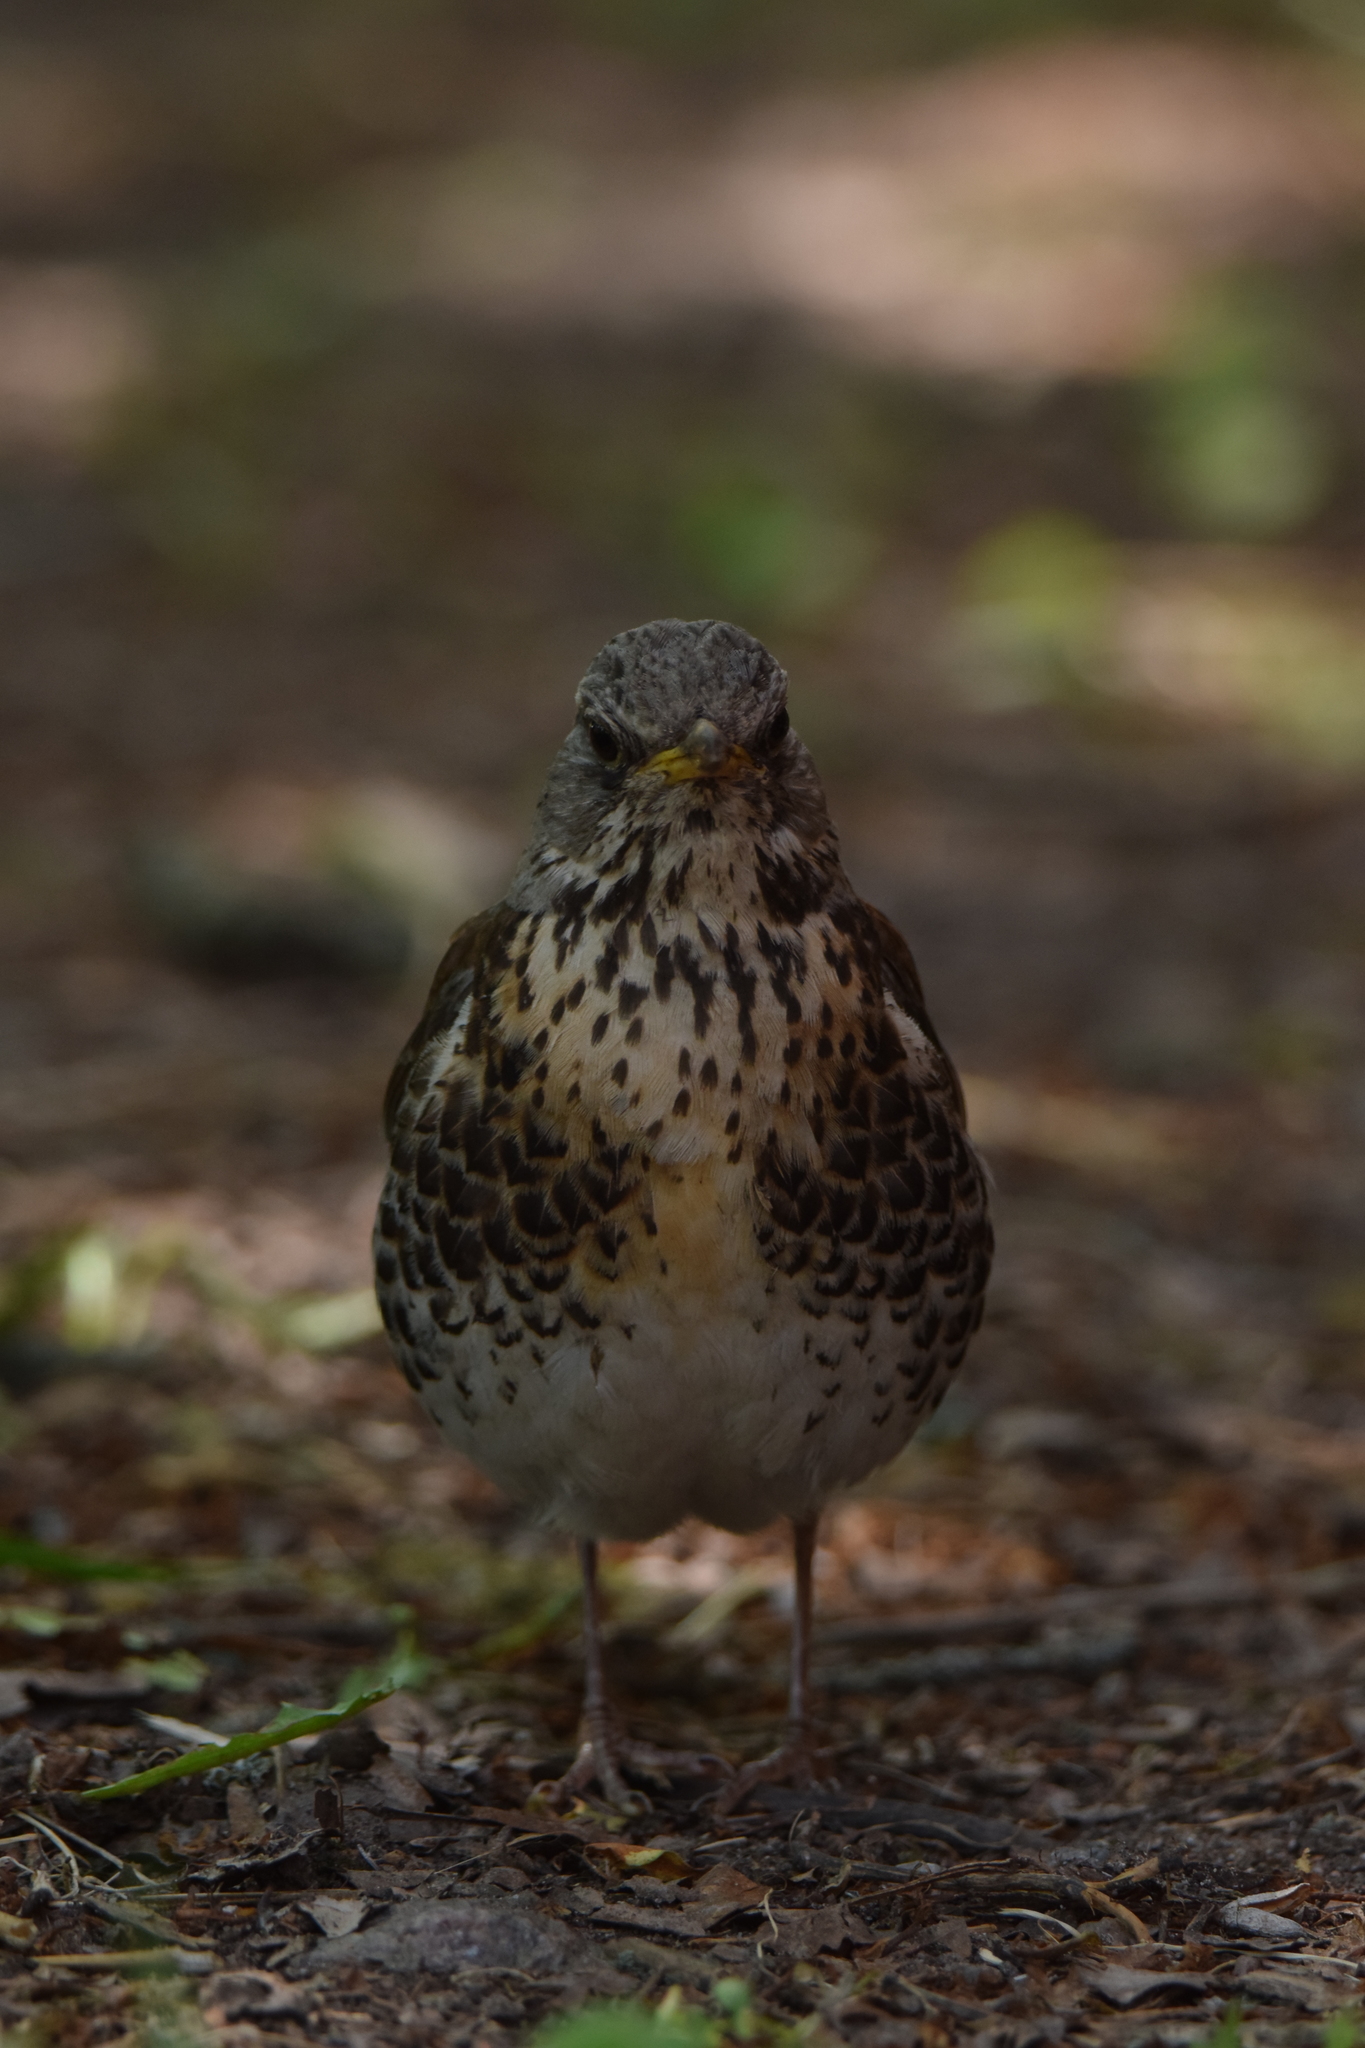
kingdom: Animalia
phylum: Chordata
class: Aves
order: Passeriformes
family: Turdidae
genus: Turdus
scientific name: Turdus pilaris
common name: Fieldfare
